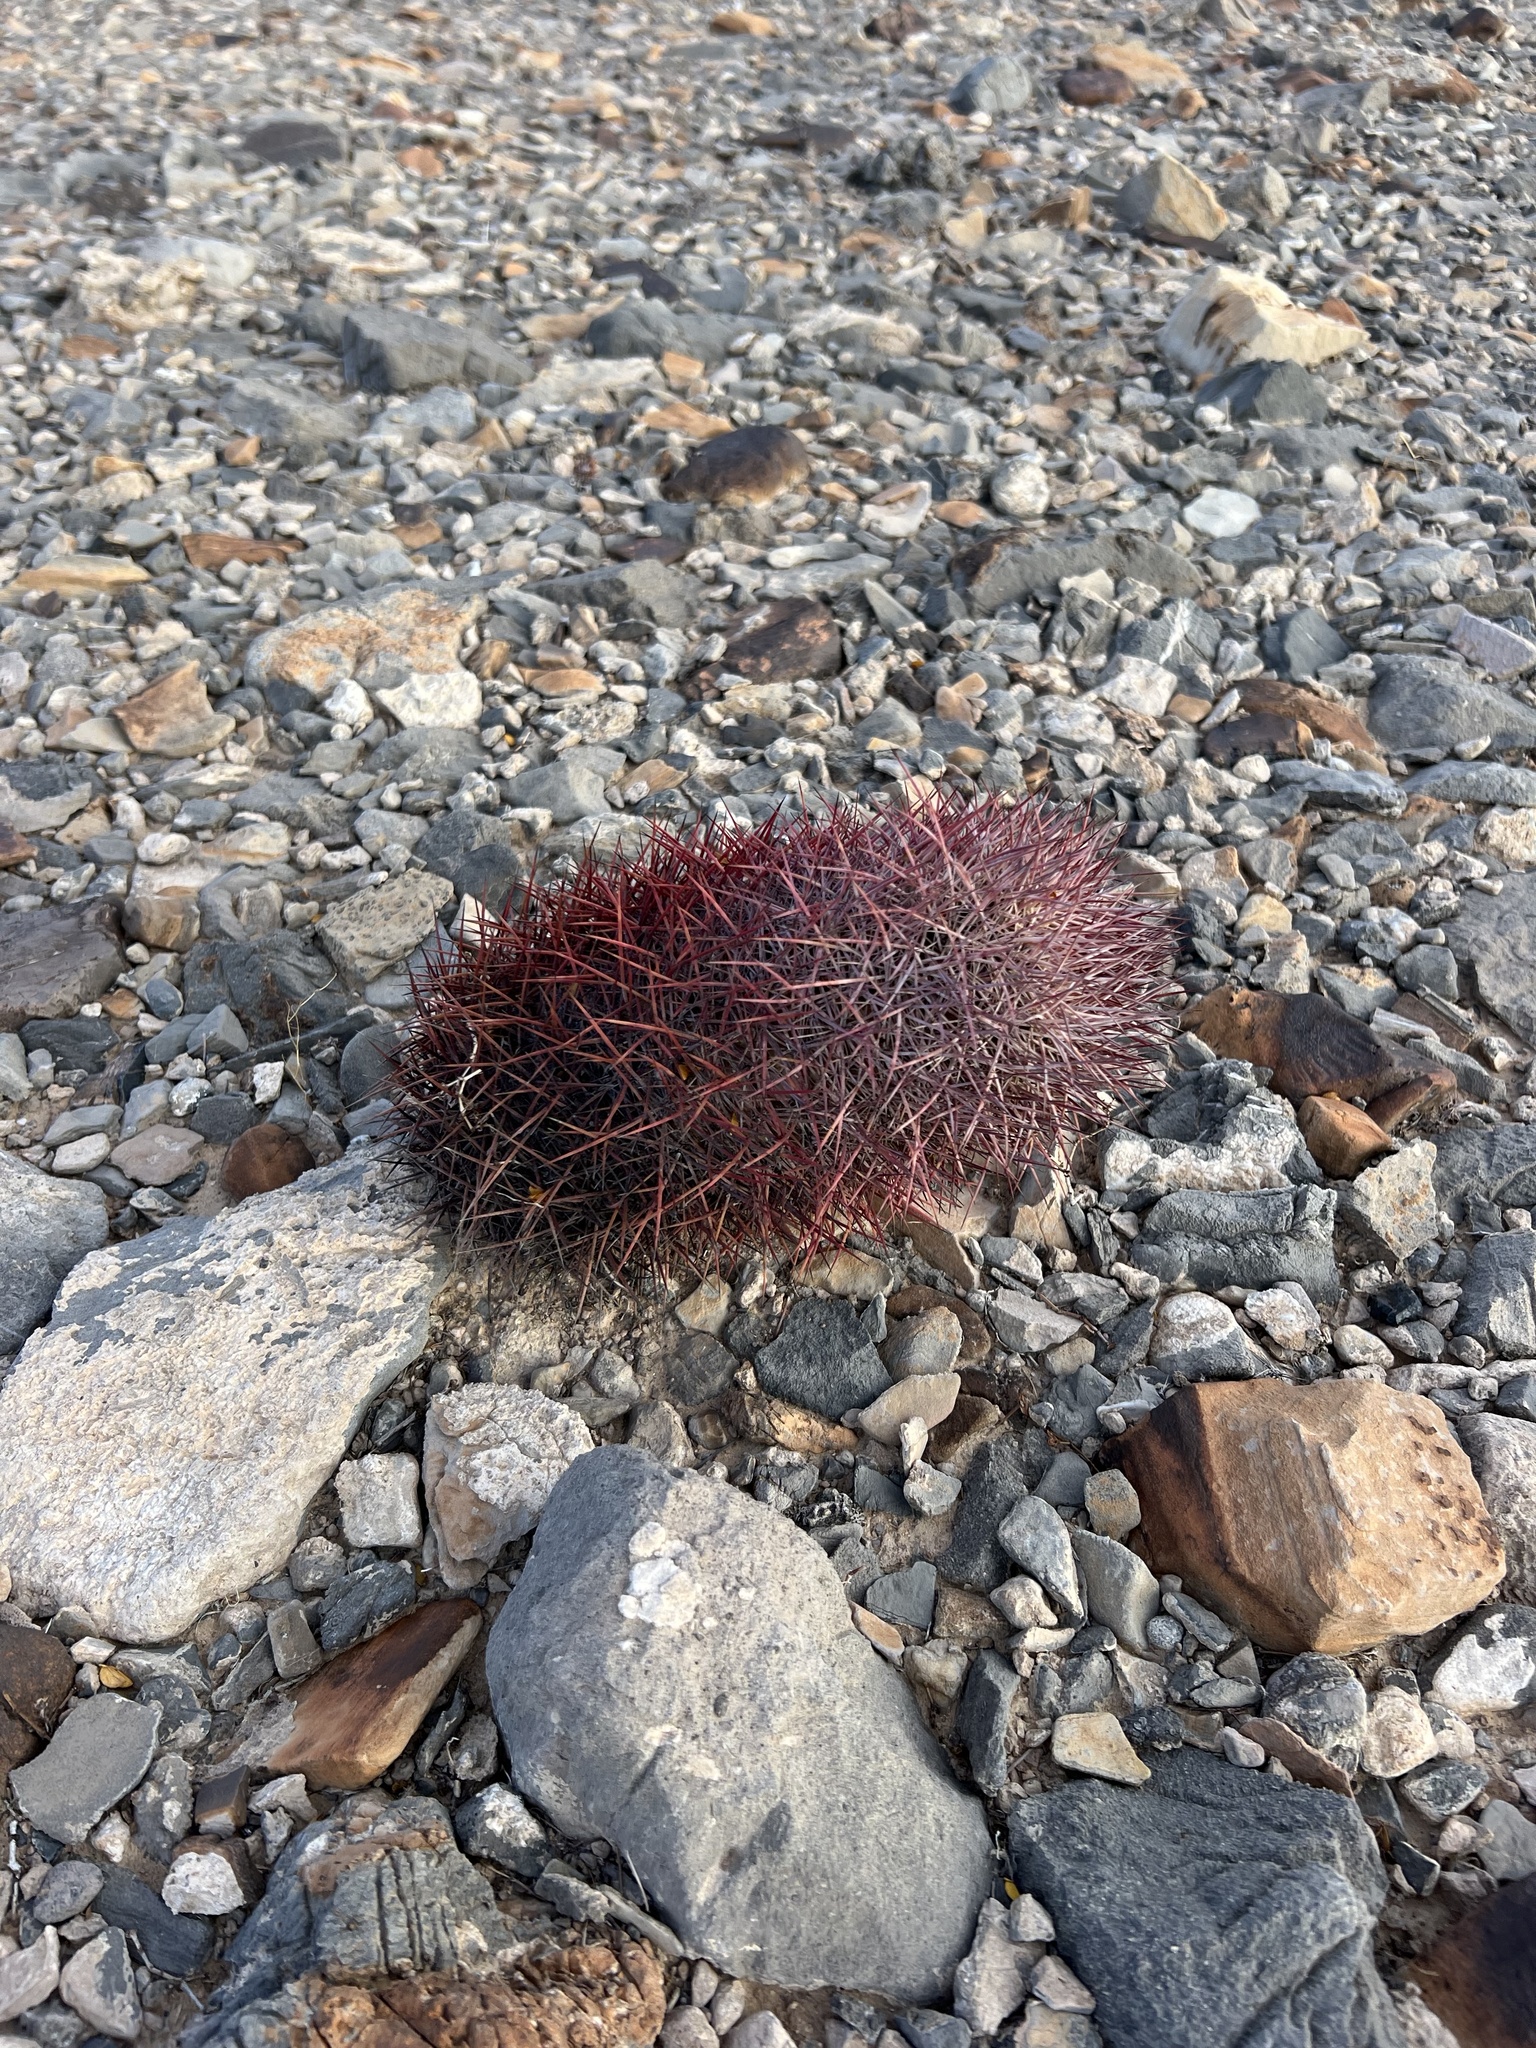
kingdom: Plantae
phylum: Tracheophyta
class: Magnoliopsida
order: Caryophyllales
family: Cactaceae
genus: Sclerocactus
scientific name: Sclerocactus johnsonii
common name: Eight-spine fishhook cactus
